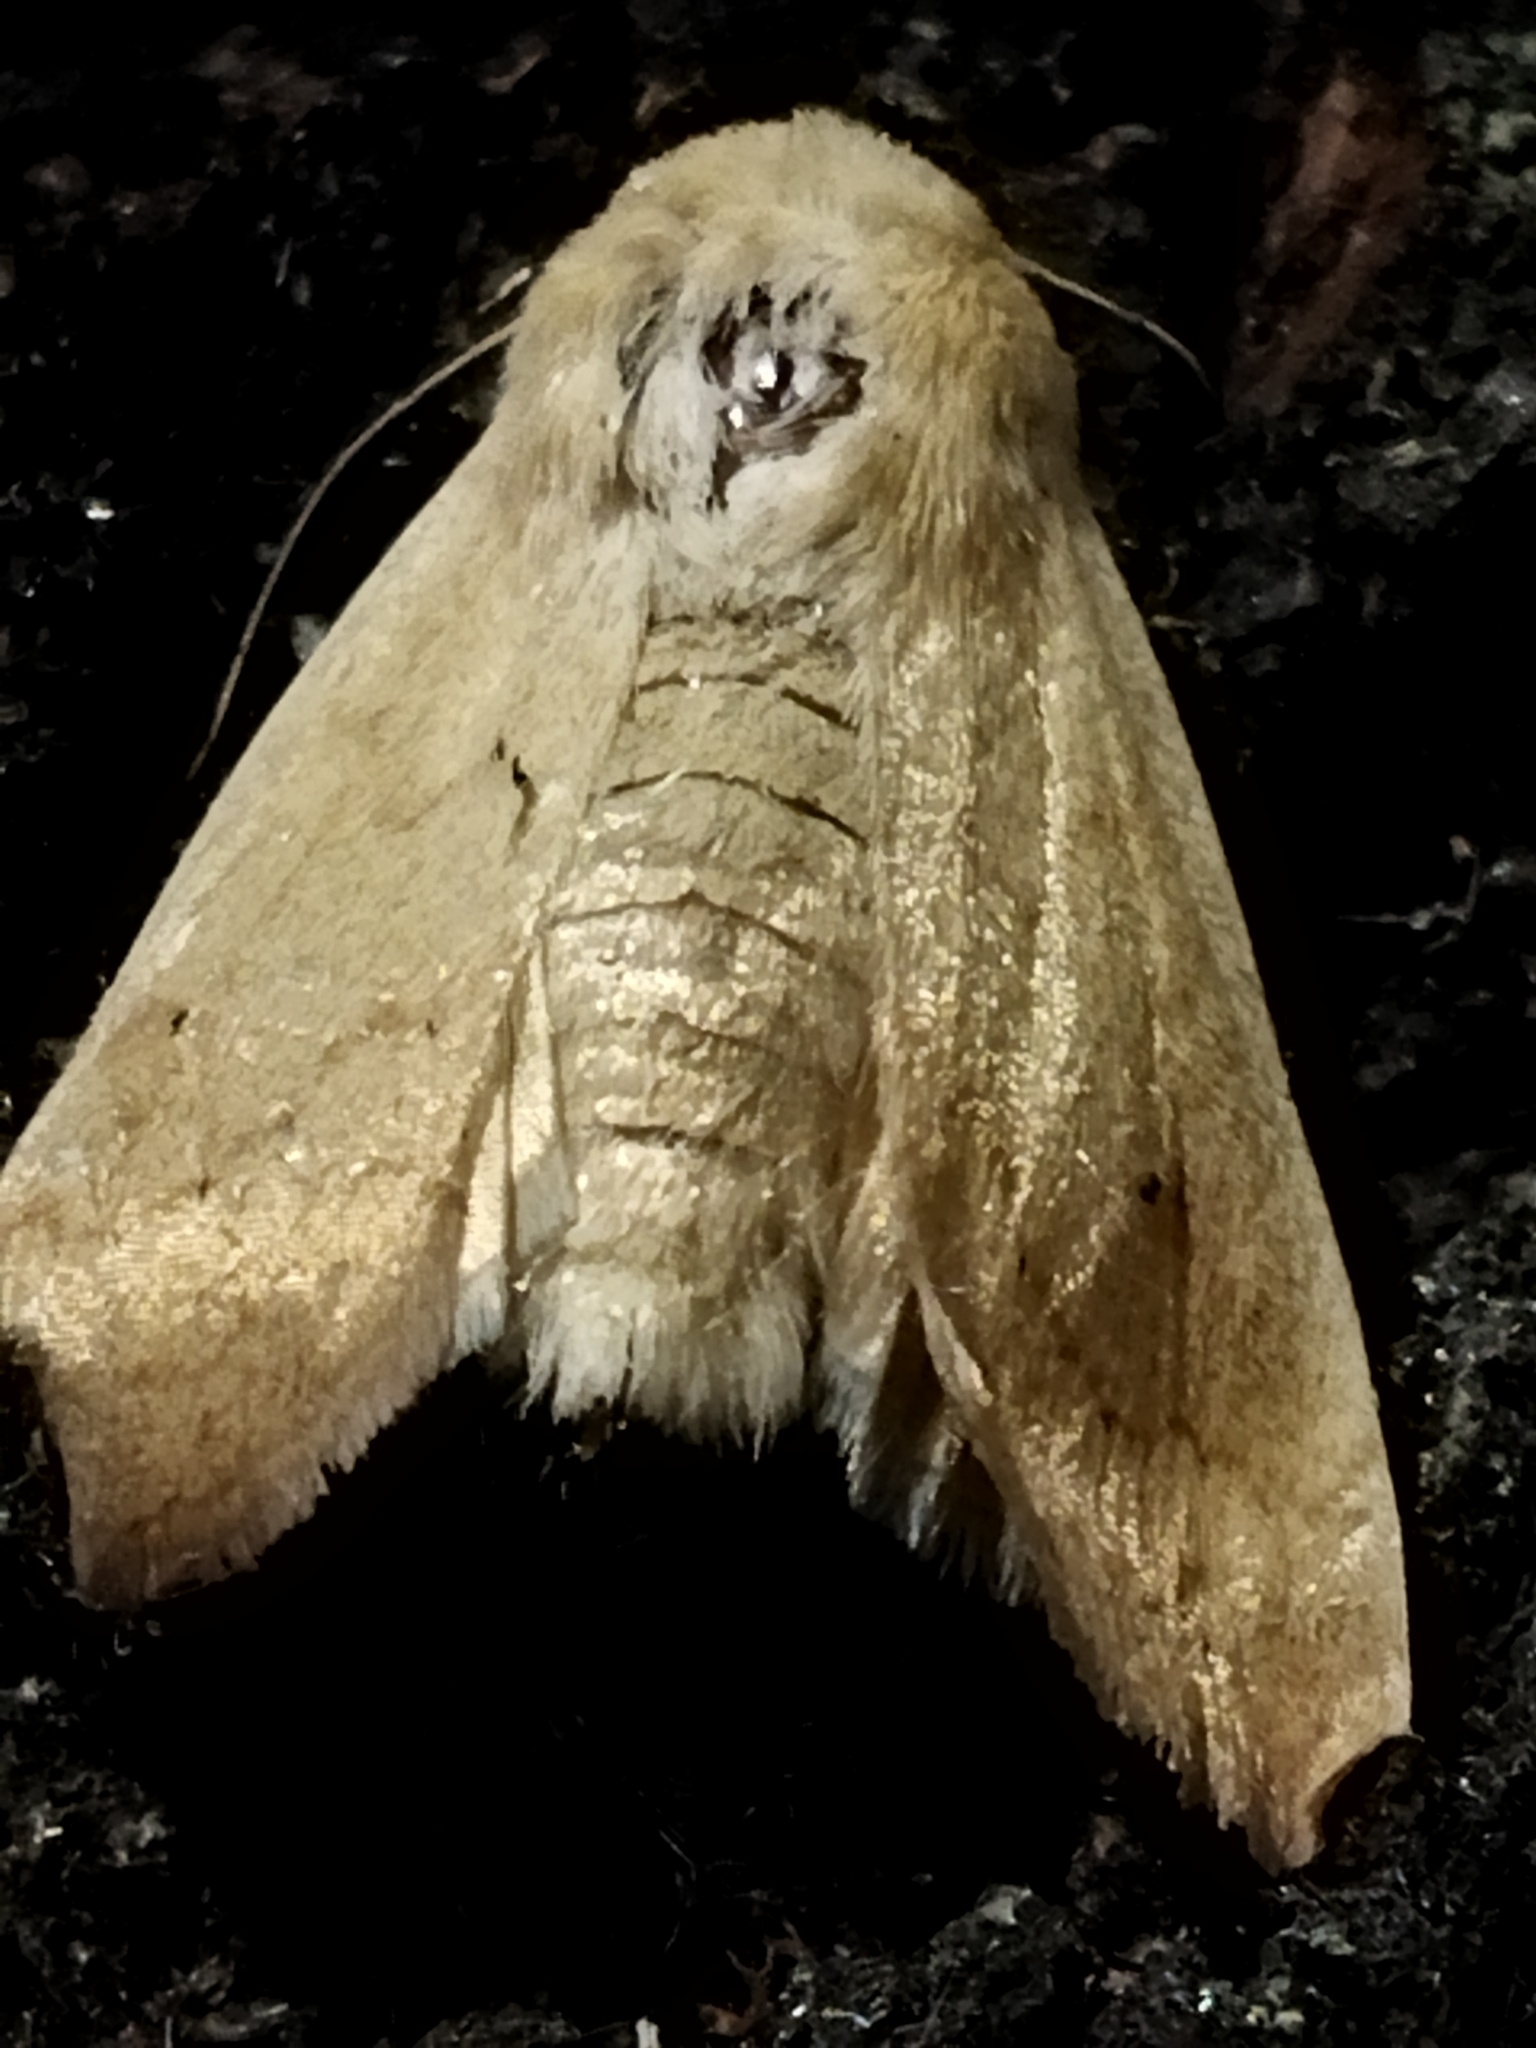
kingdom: Animalia
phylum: Arthropoda
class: Insecta
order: Lepidoptera
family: Noctuidae
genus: Mythimna
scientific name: Mythimna vitellina
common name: Delicate
